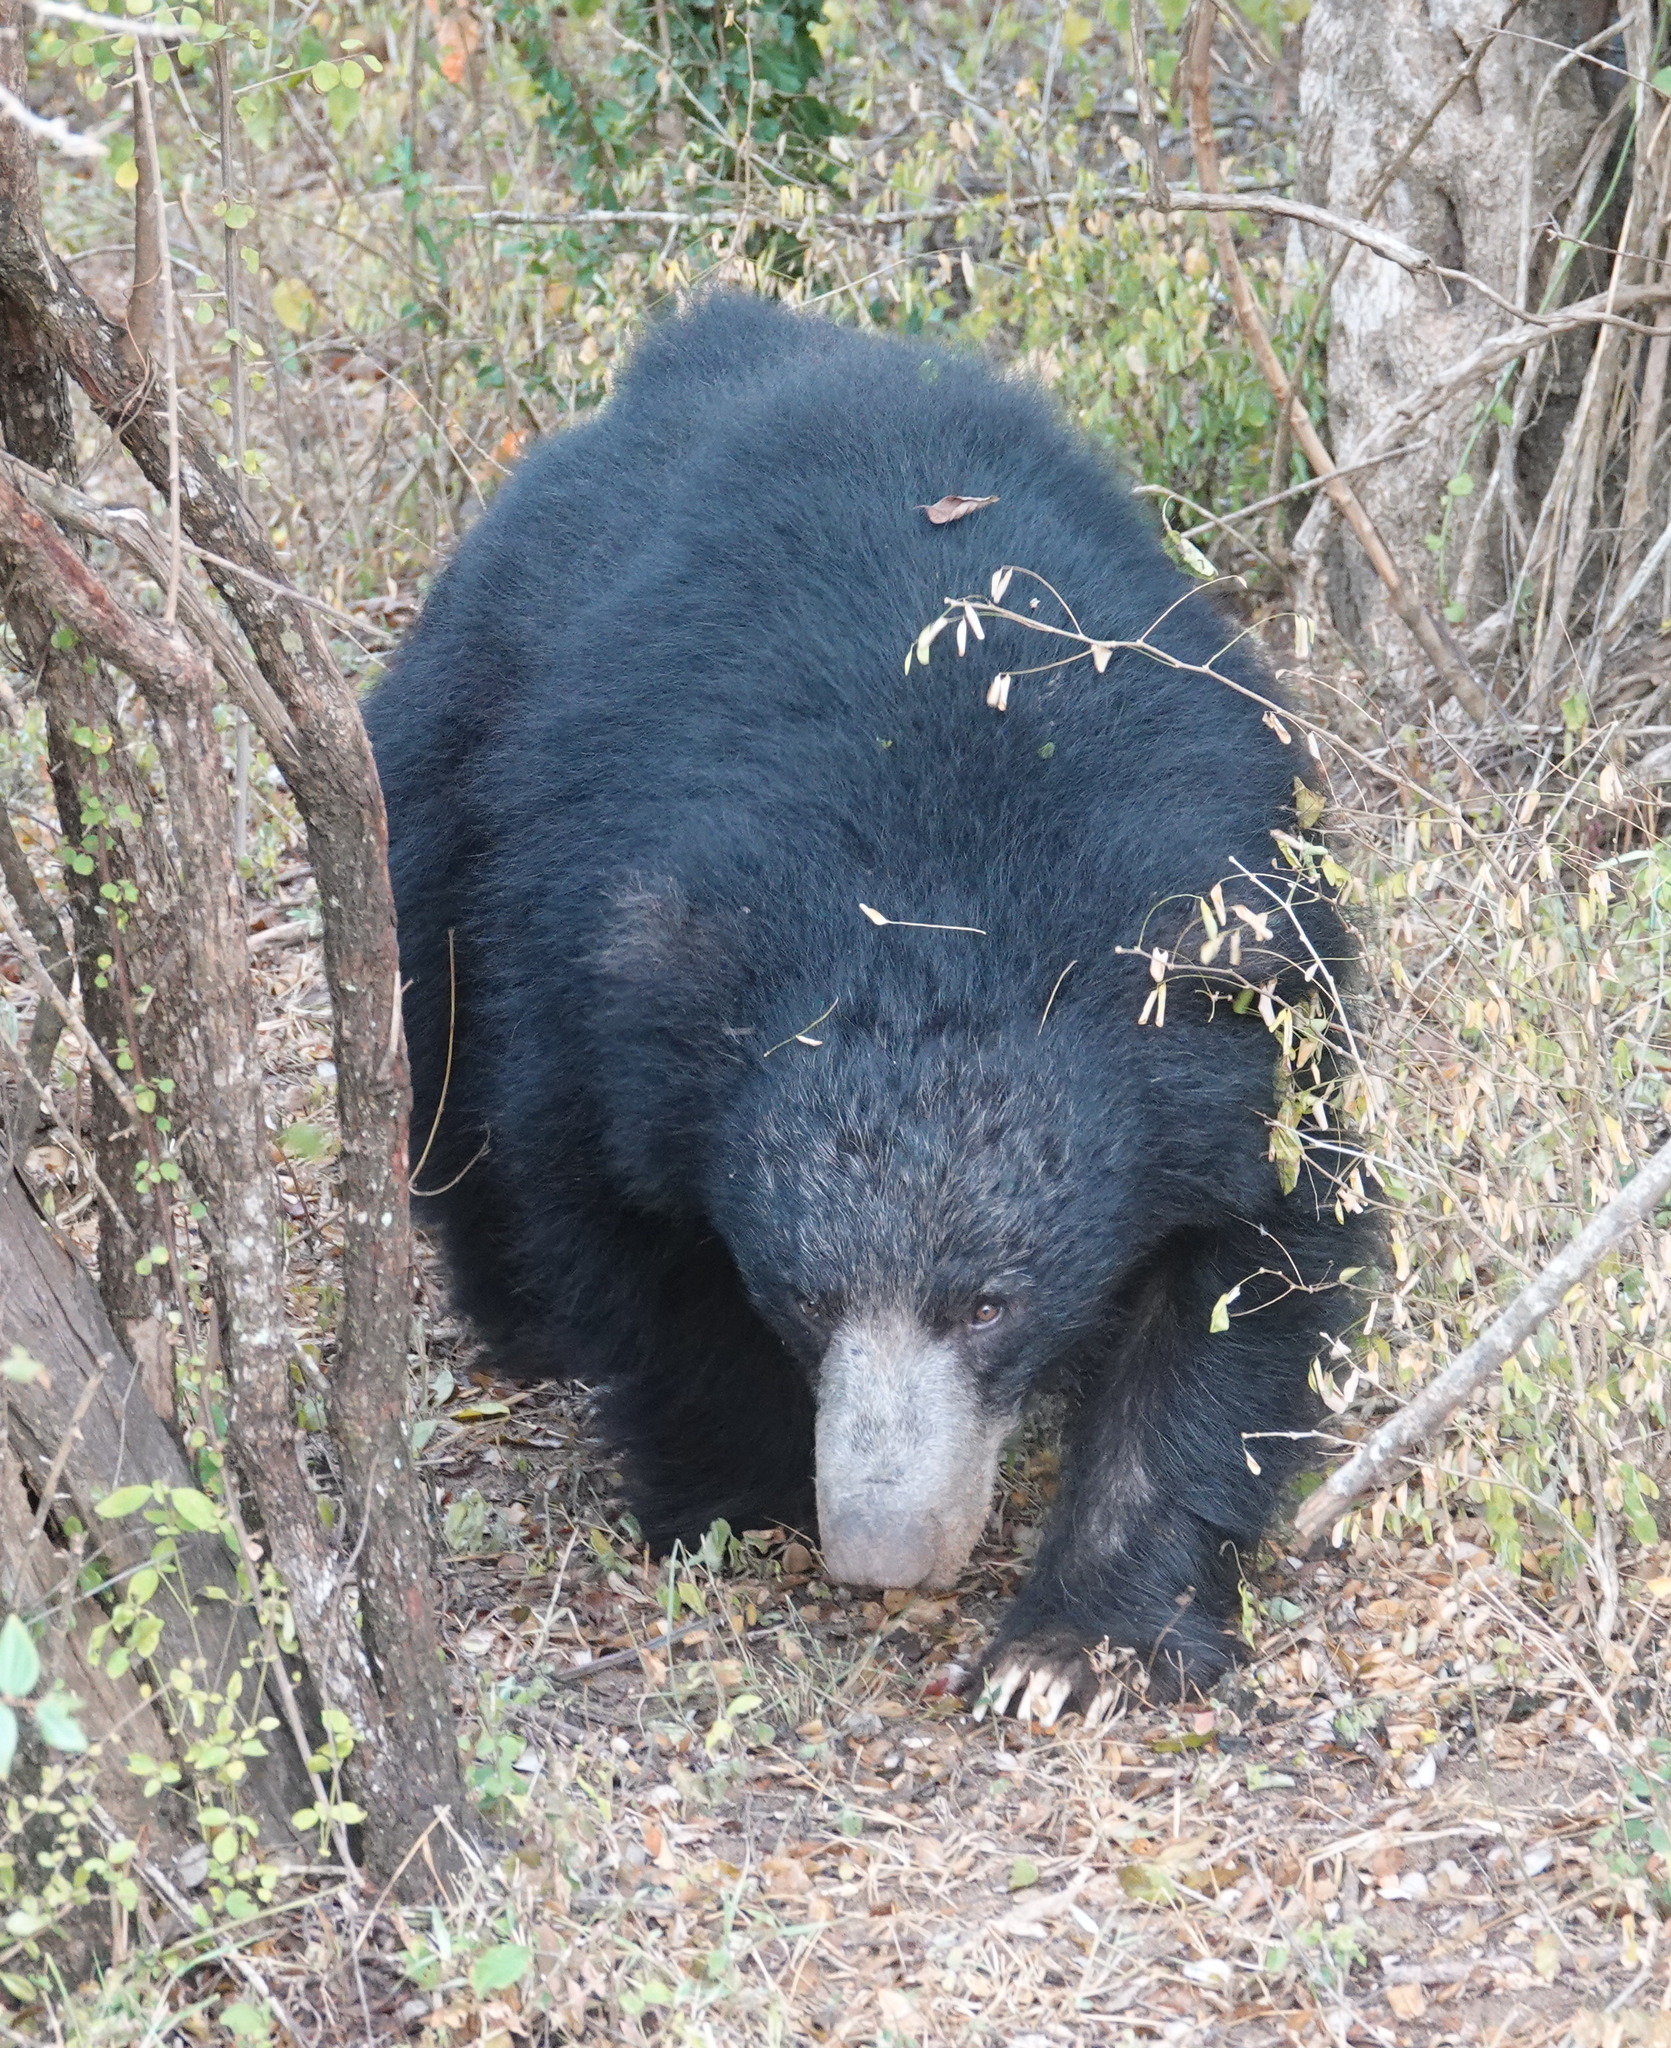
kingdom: Animalia
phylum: Chordata
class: Mammalia
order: Carnivora
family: Ursidae
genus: Melursus
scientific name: Melursus ursinus
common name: Sloth bear
